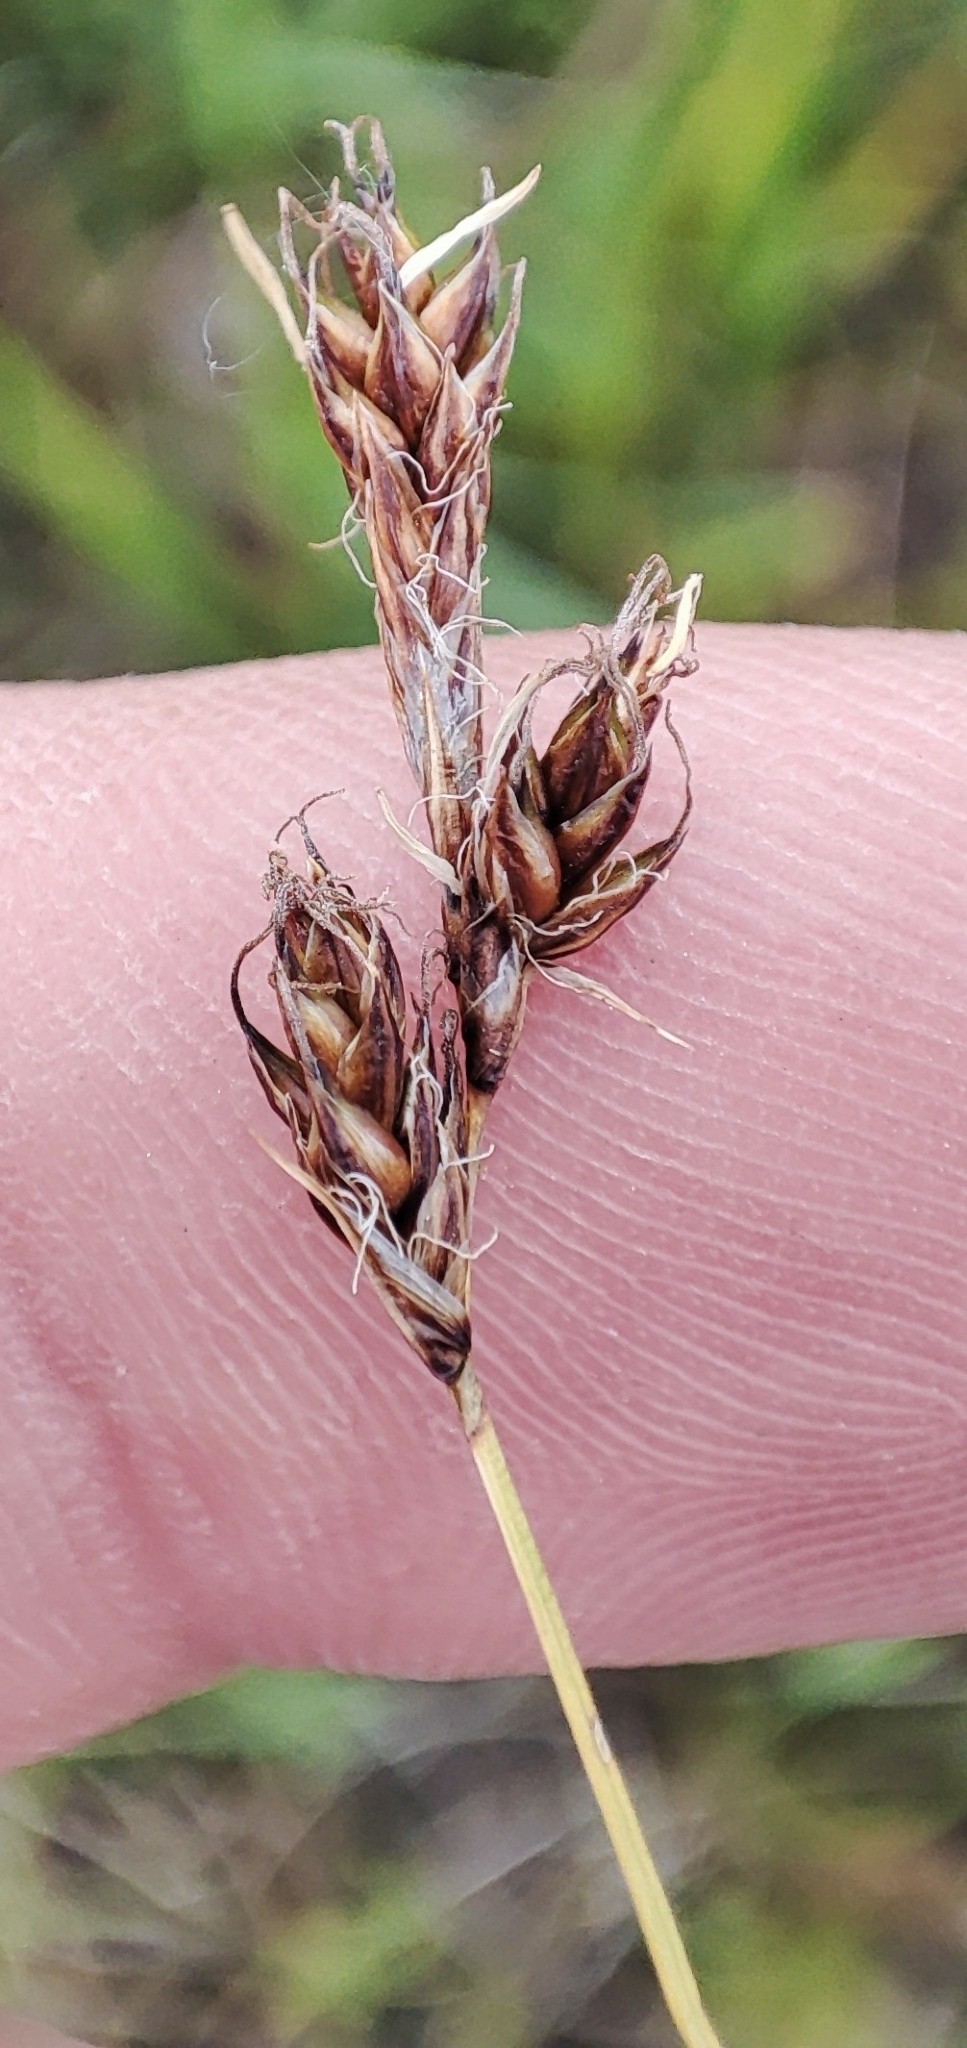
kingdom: Plantae
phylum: Tracheophyta
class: Liliopsida
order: Poales
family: Cyperaceae
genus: Carex
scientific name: Carex praecox
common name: Early sedge
